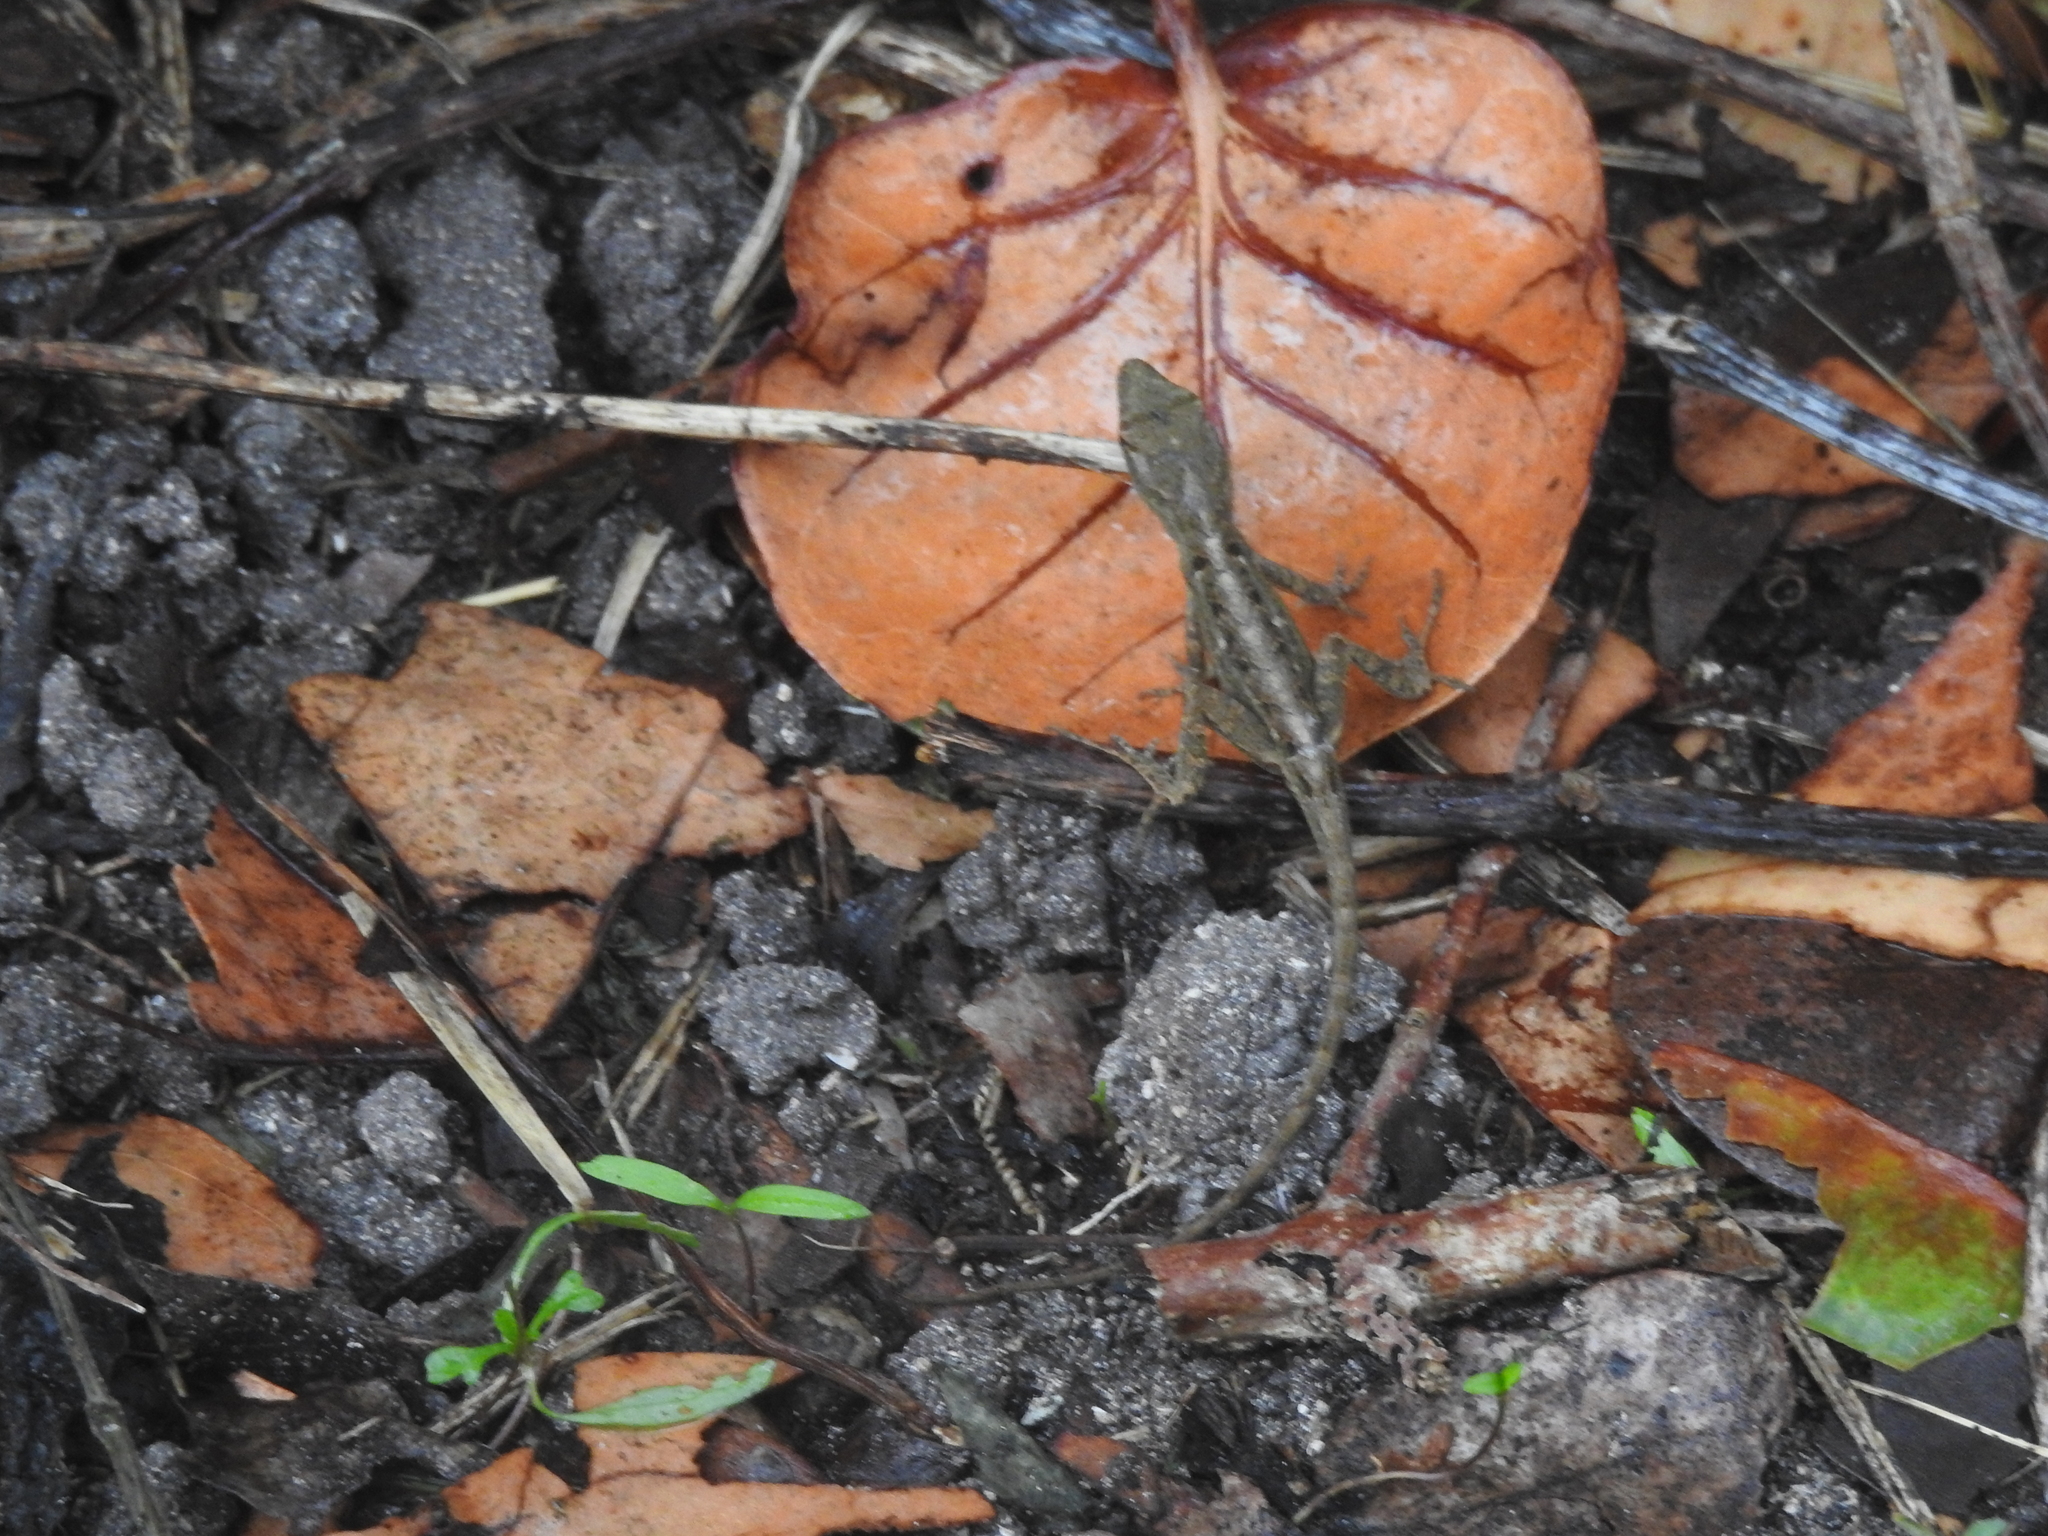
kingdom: Animalia
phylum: Chordata
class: Squamata
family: Dactyloidae
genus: Anolis
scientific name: Anolis sagrei
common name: Brown anole
